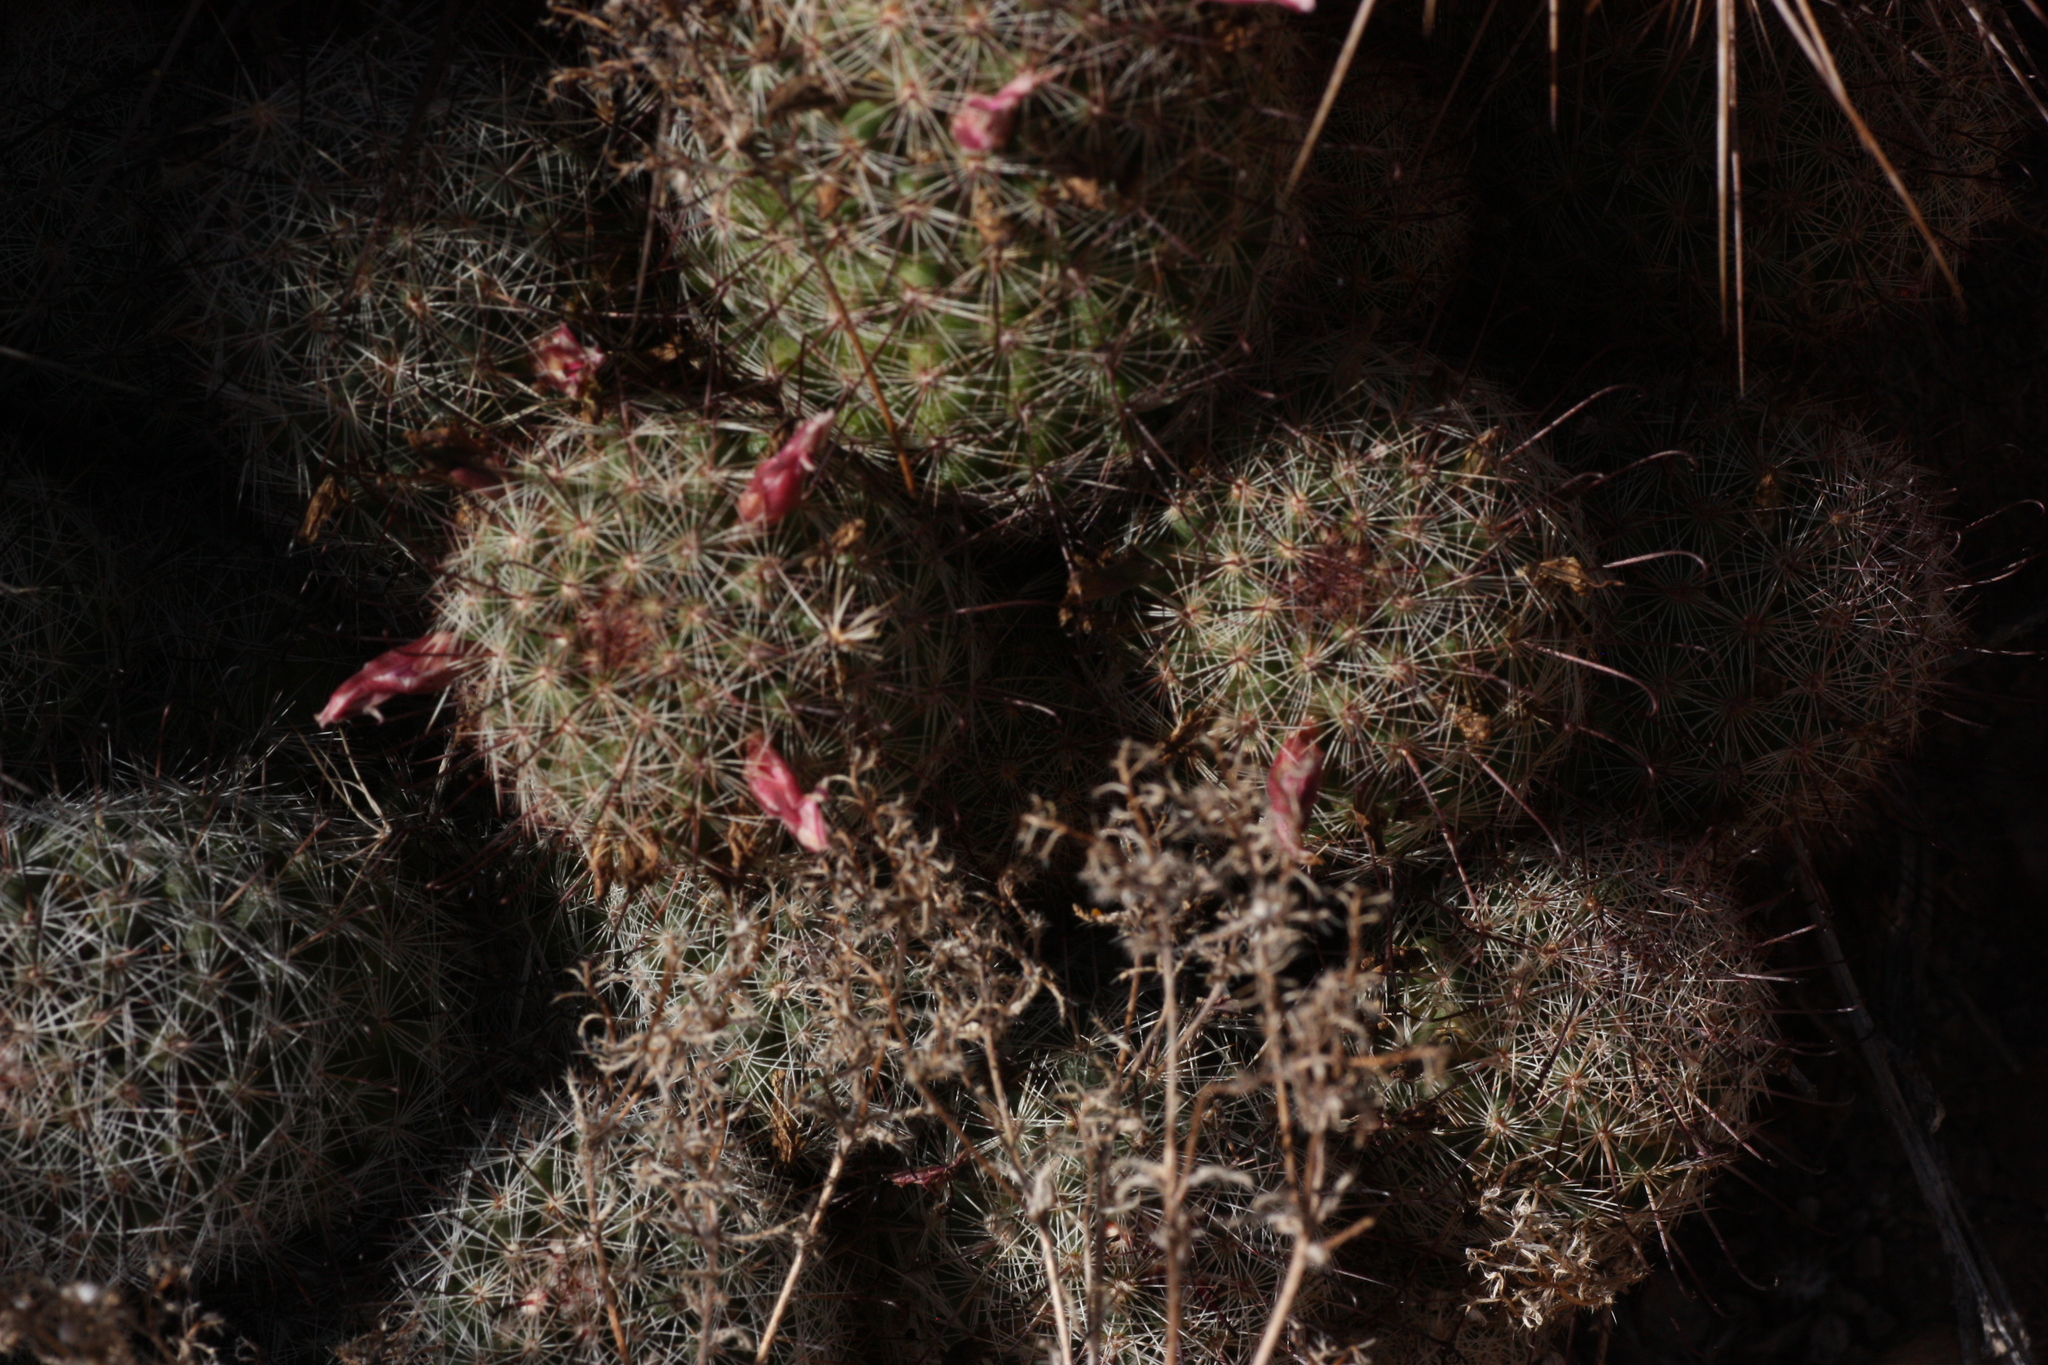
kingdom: Plantae
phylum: Tracheophyta
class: Magnoliopsida
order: Caryophyllales
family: Cactaceae
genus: Cochemiea
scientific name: Cochemiea grahamii
